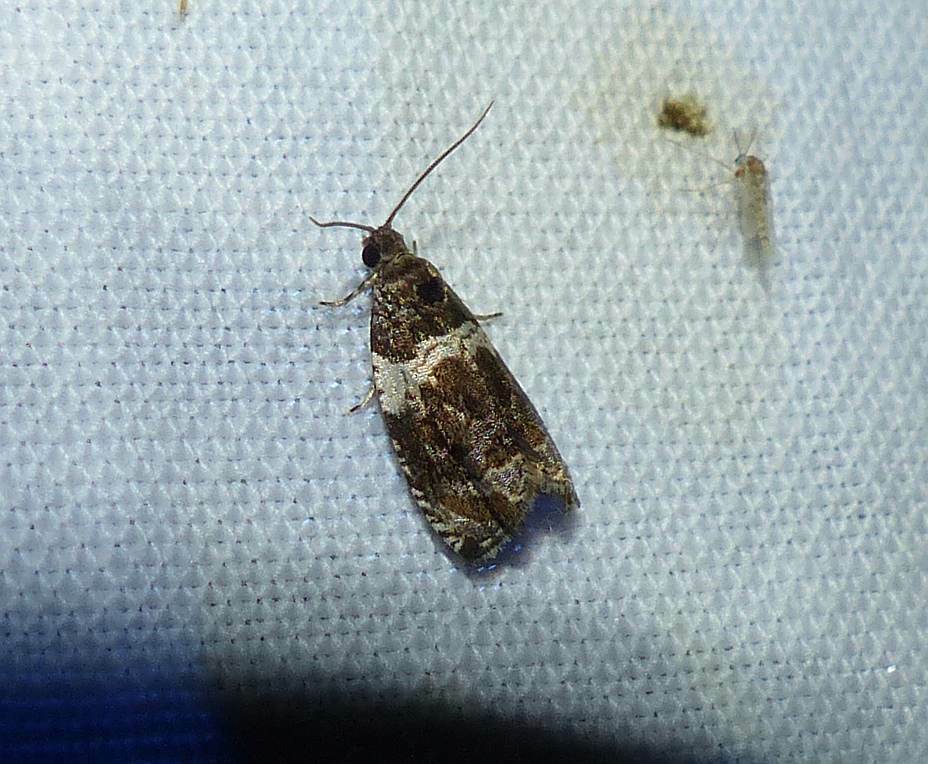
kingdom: Animalia
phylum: Arthropoda
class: Insecta
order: Lepidoptera
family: Tortricidae
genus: Olethreutes
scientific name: Olethreutes fasciatana
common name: Banded olethreutes moth
